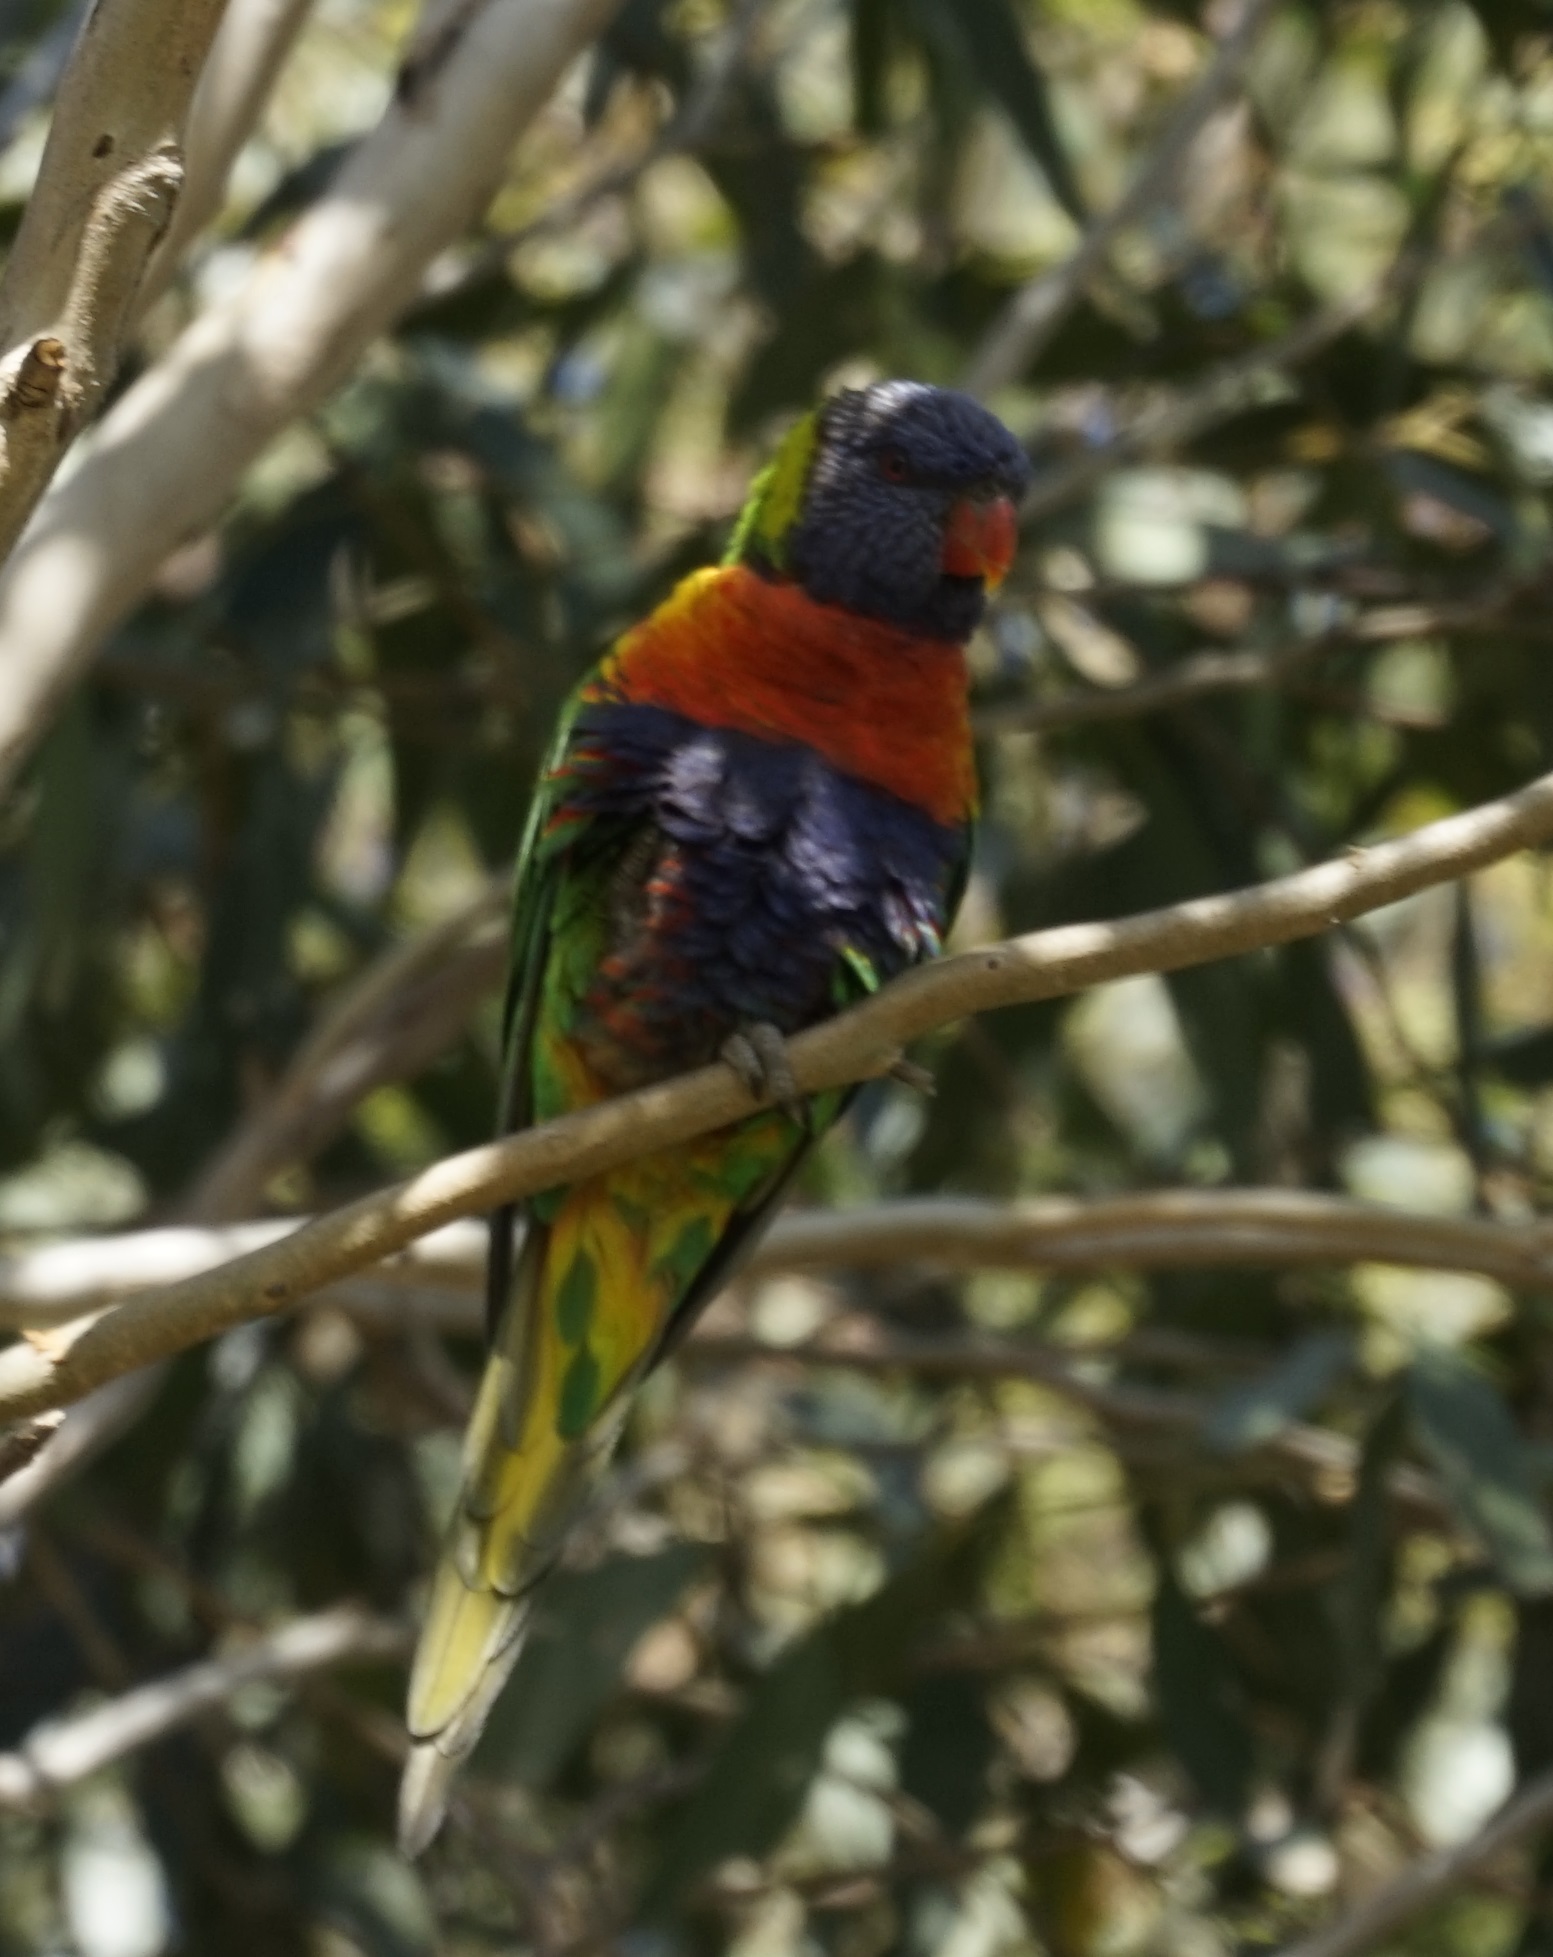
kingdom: Animalia
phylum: Chordata
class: Aves
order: Psittaciformes
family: Psittacidae
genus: Trichoglossus
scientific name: Trichoglossus haematodus
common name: Coconut lorikeet
